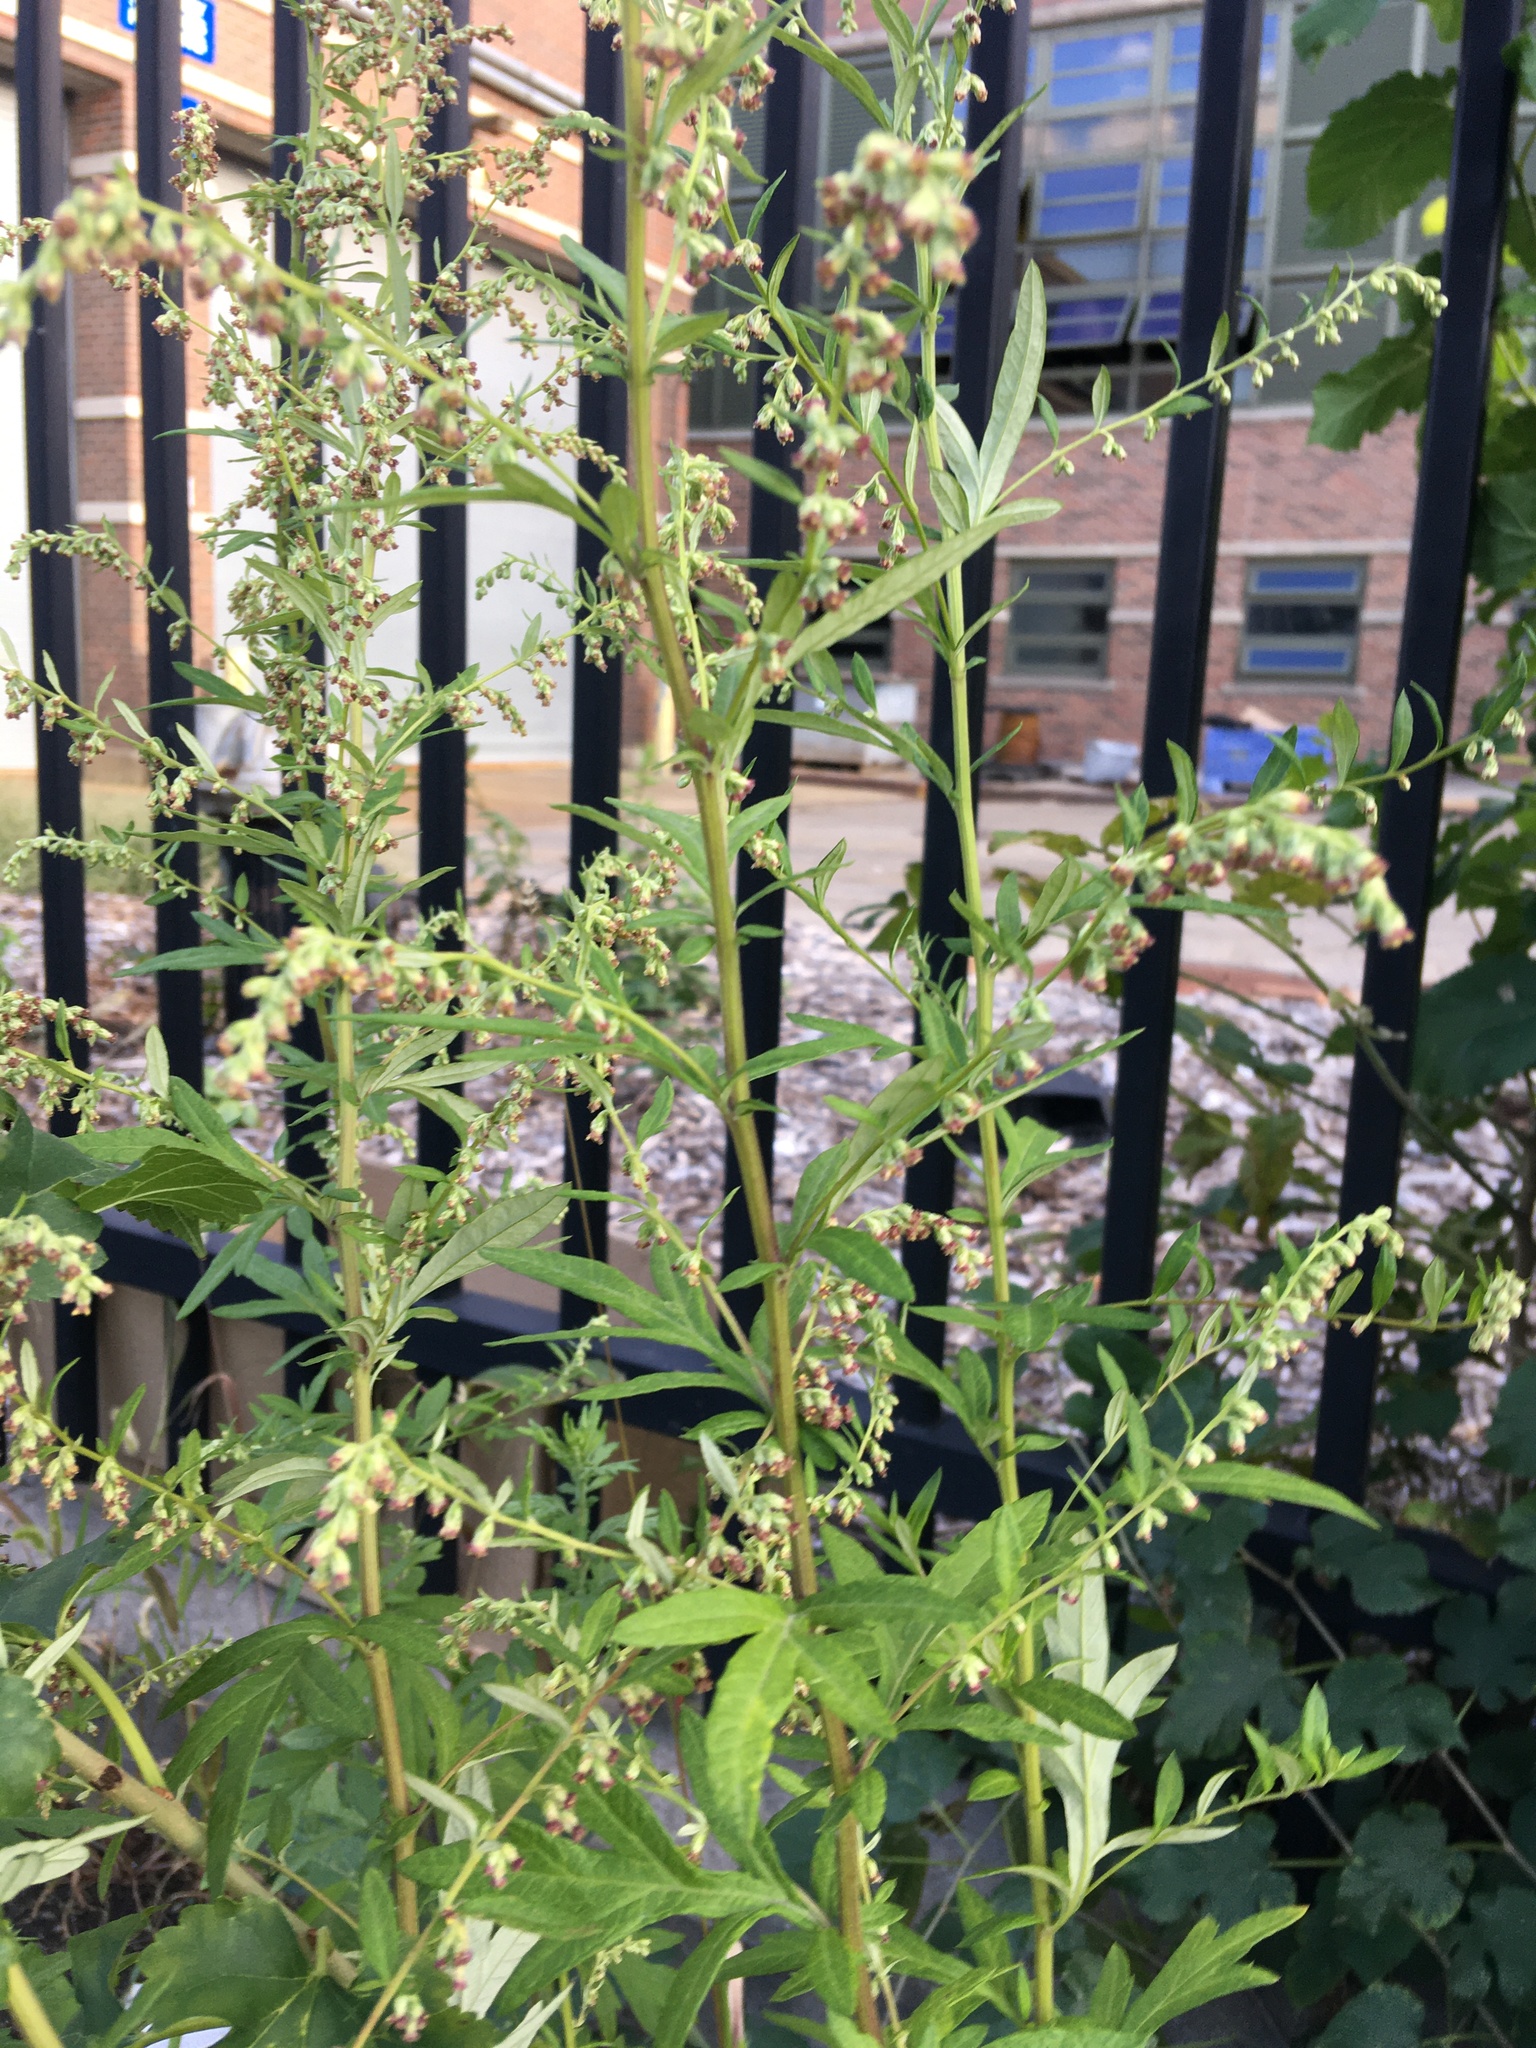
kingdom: Plantae
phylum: Tracheophyta
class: Magnoliopsida
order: Asterales
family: Asteraceae
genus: Artemisia
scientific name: Artemisia vulgaris
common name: Mugwort
